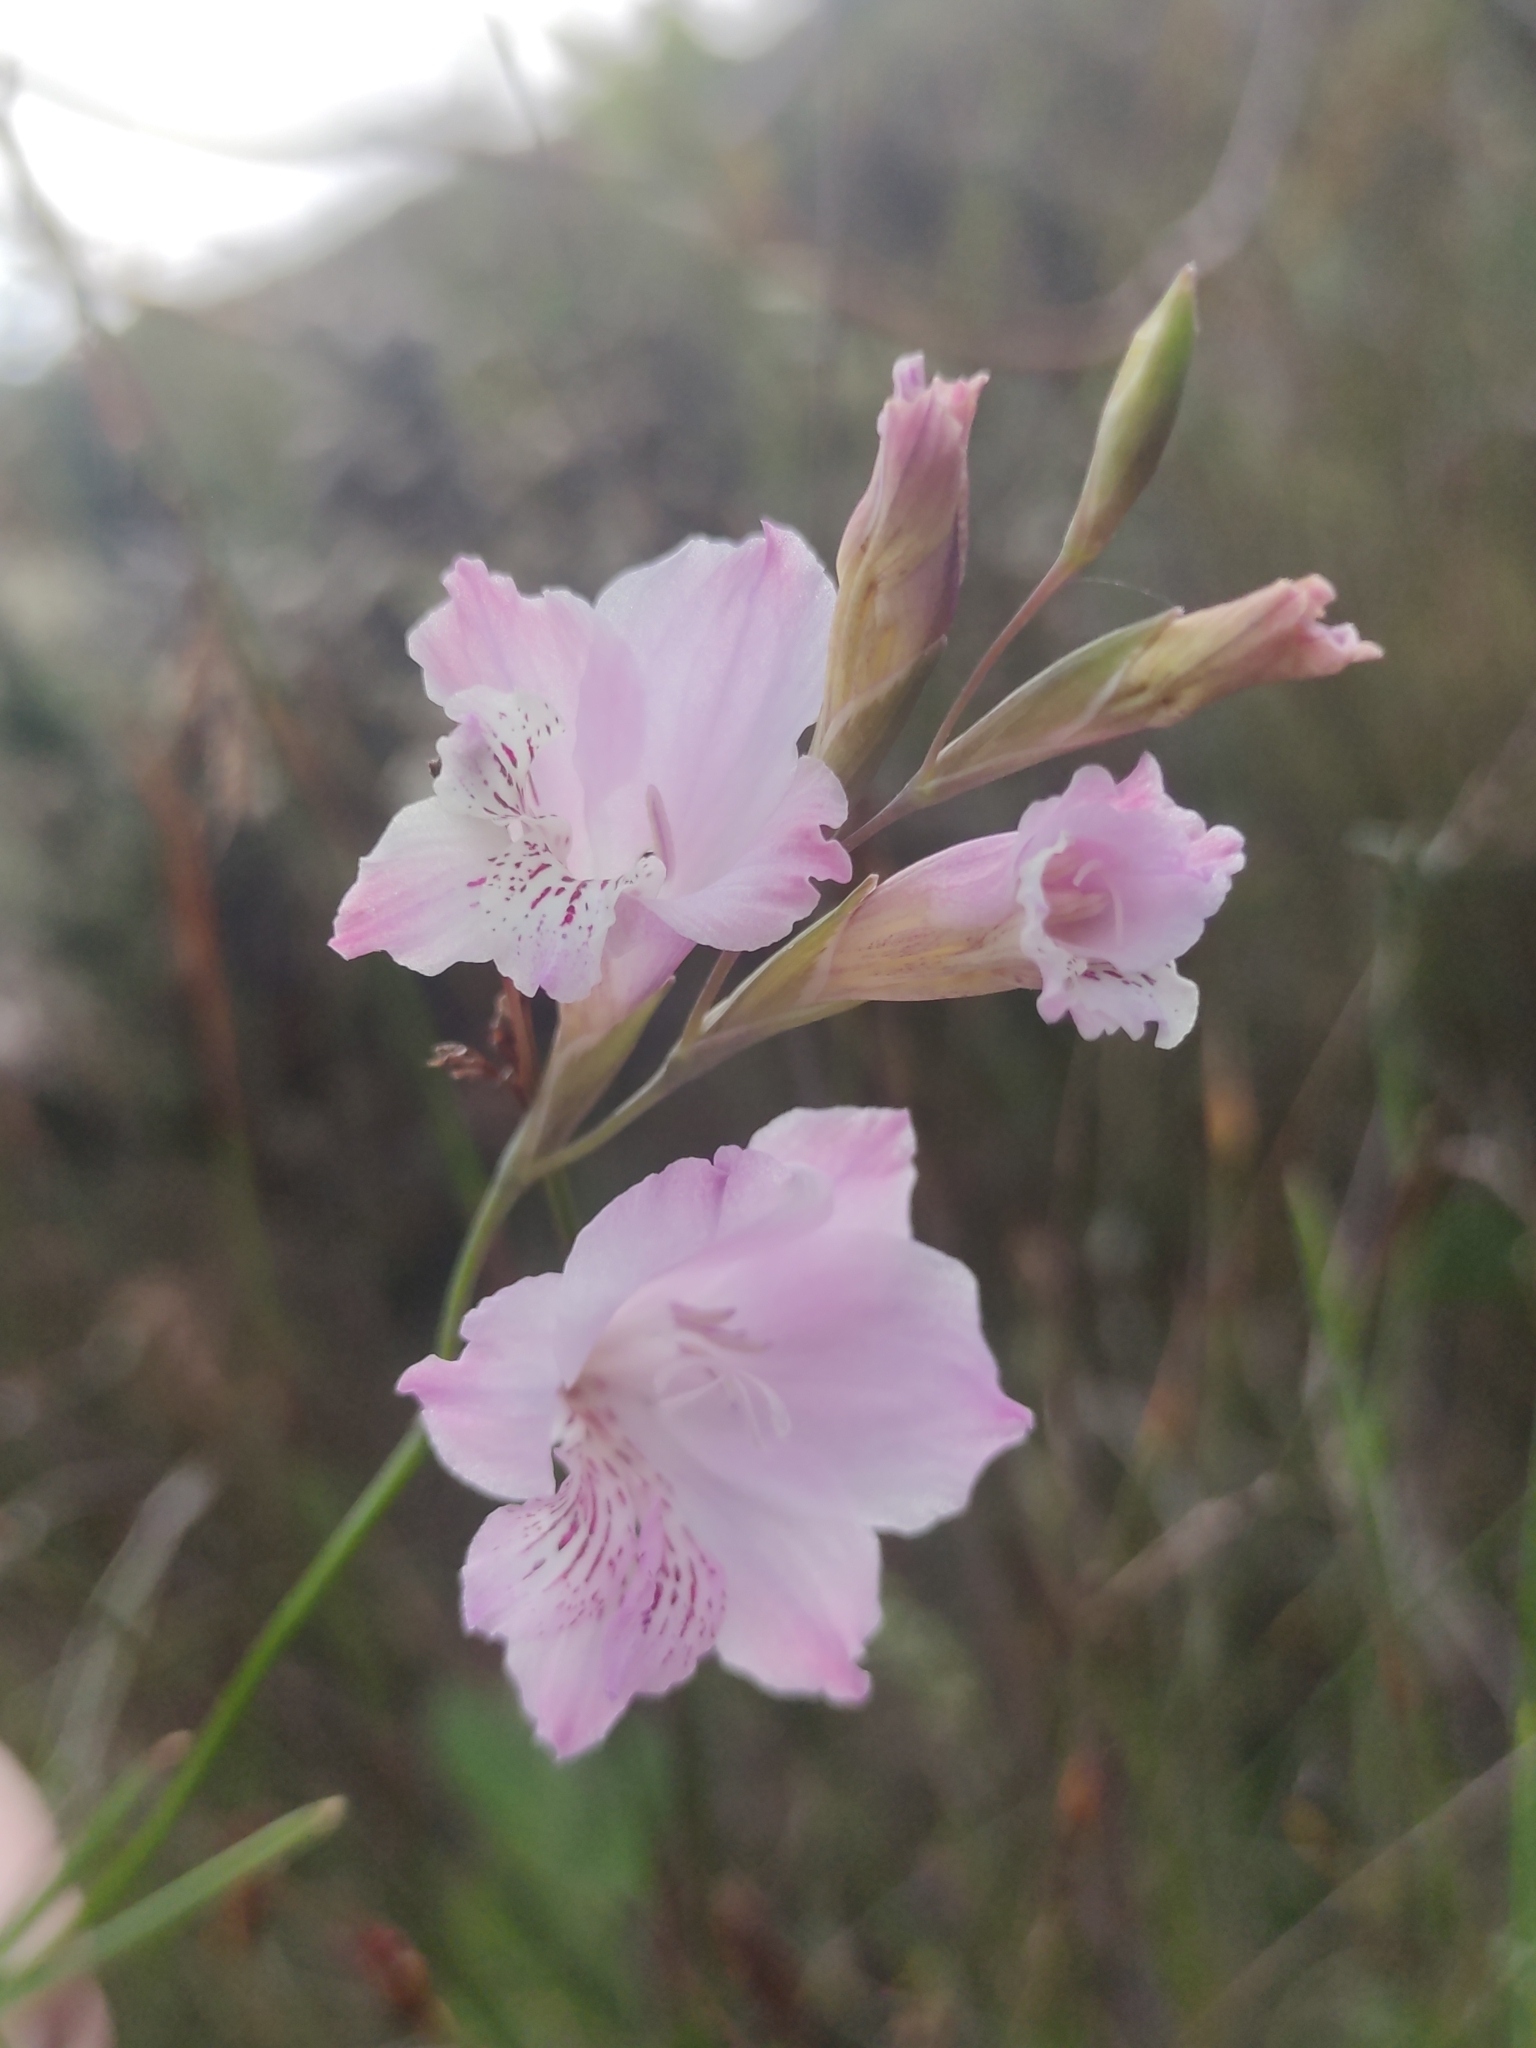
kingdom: Plantae
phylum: Tracheophyta
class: Liliopsida
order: Asparagales
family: Iridaceae
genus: Gladiolus
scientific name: Gladiolus hirsutus
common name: Small pink afrikaner
